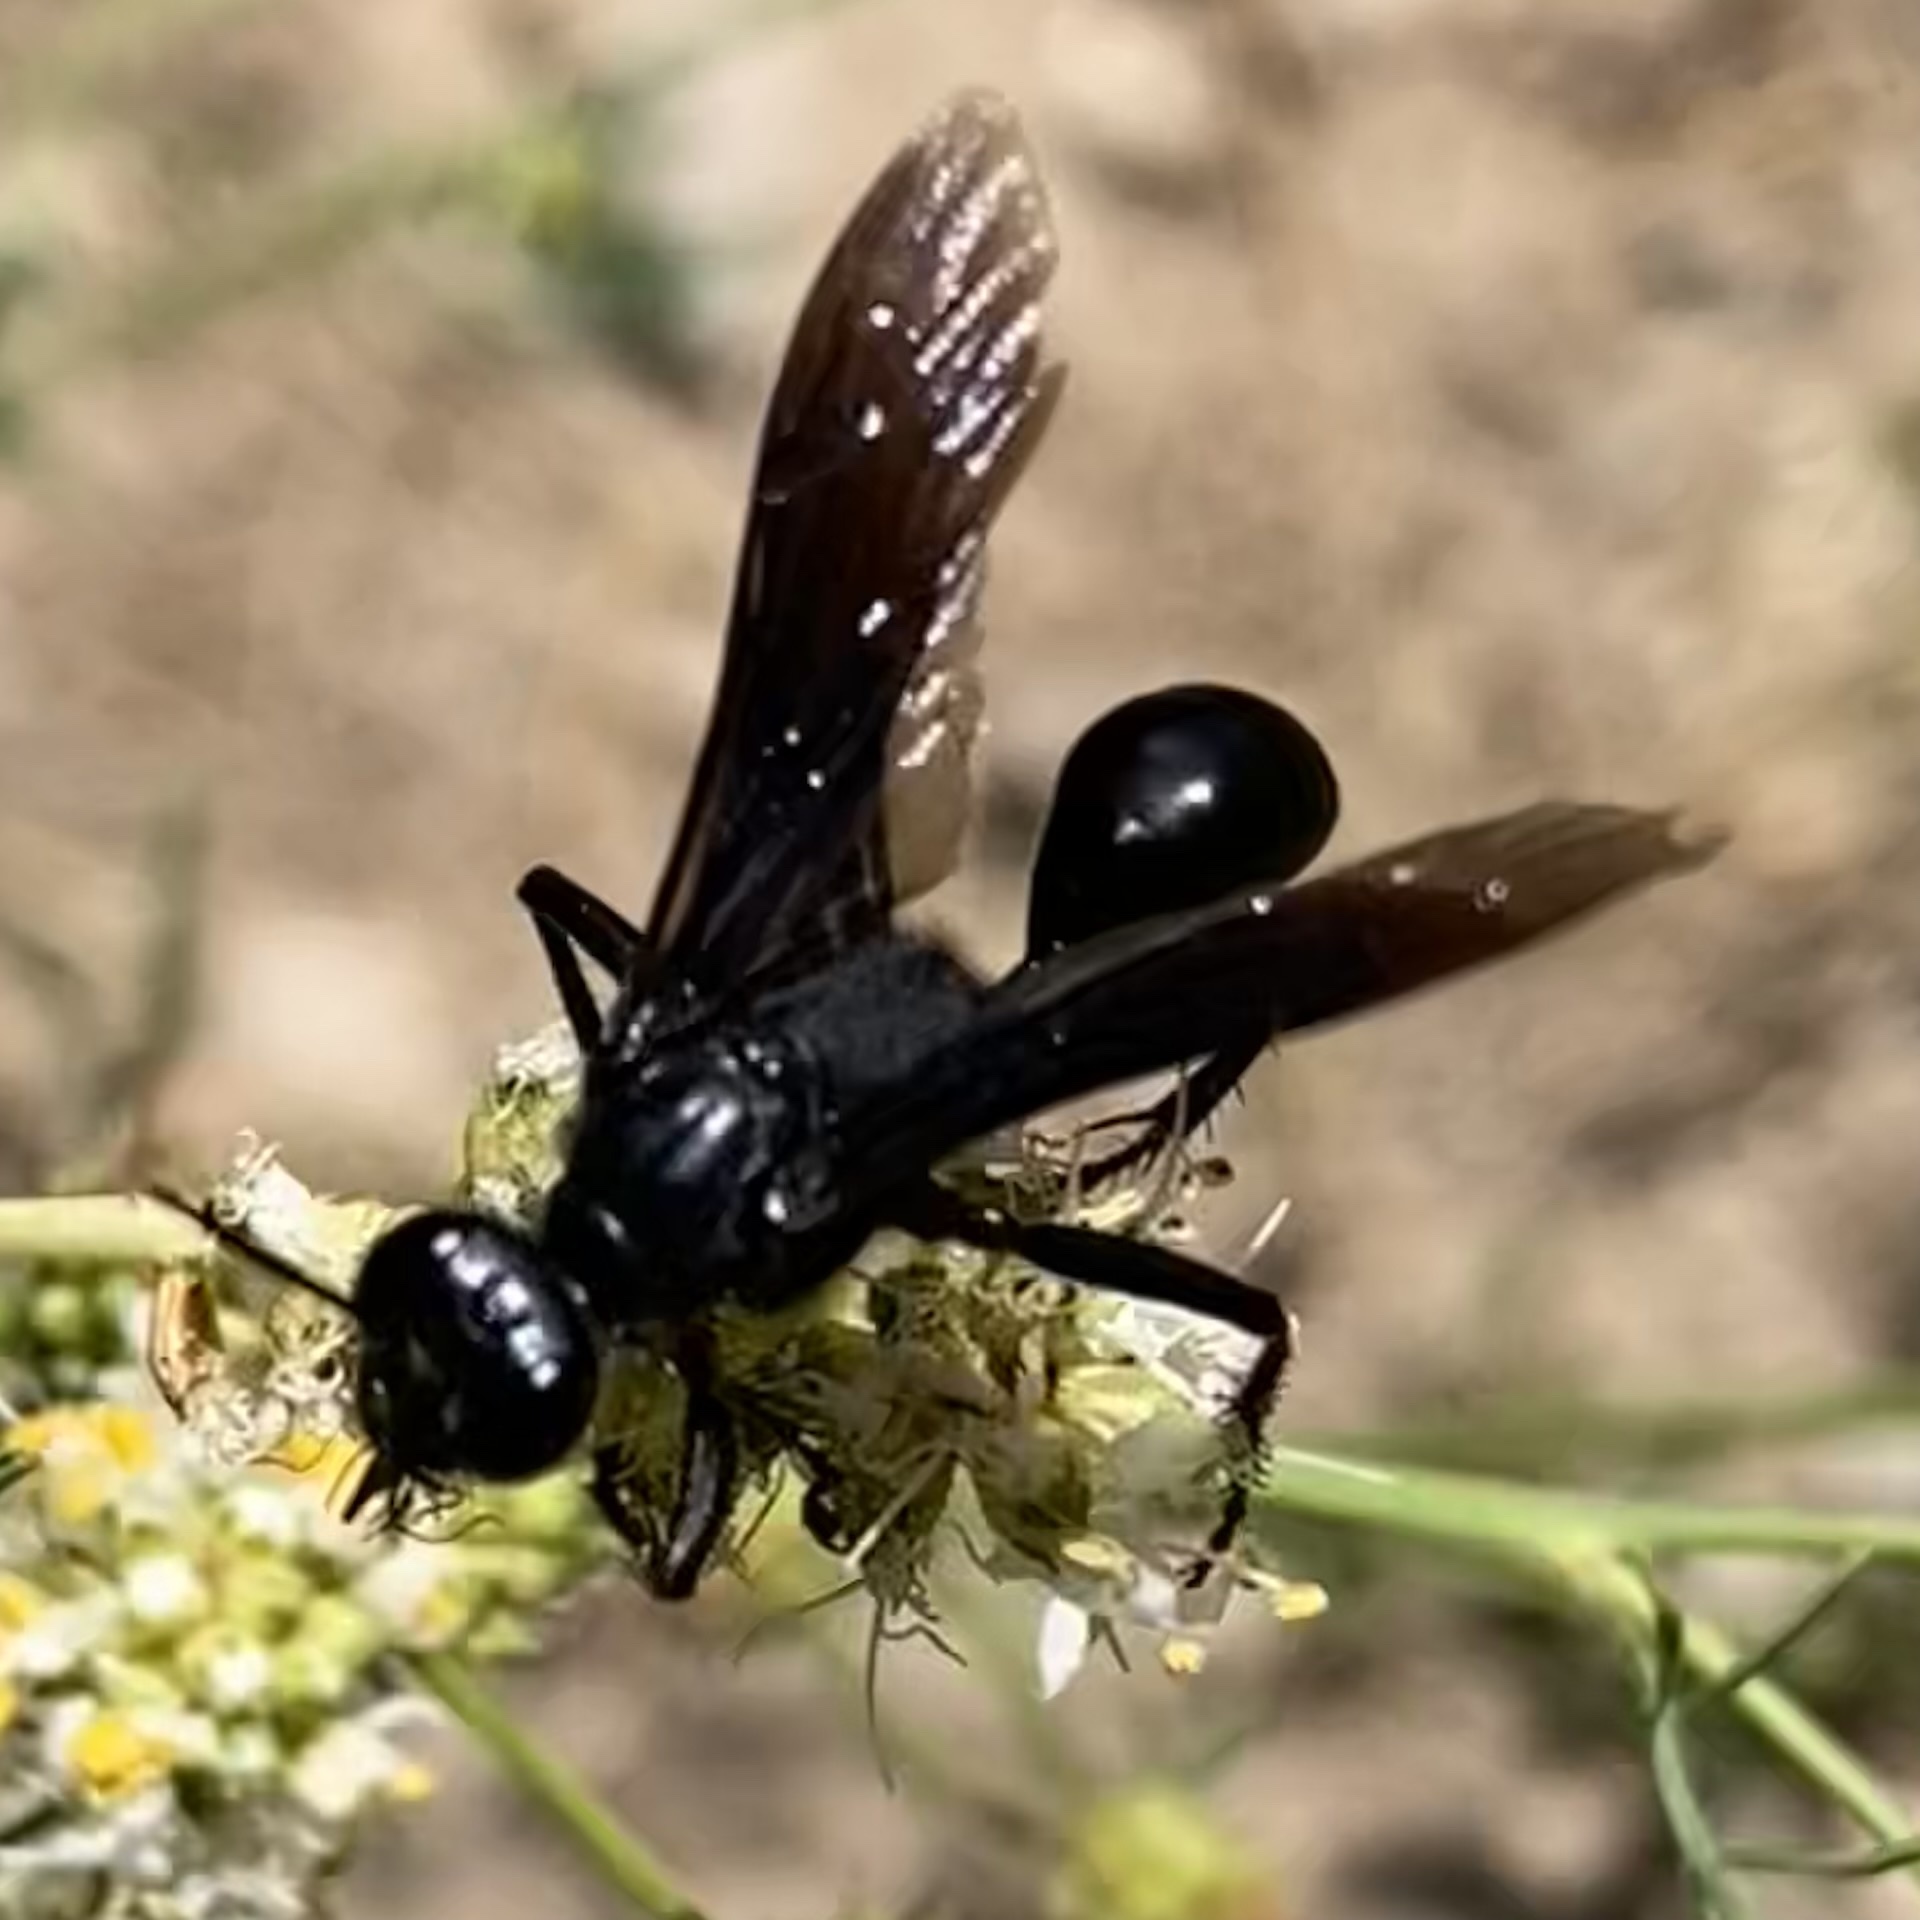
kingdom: Animalia
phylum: Arthropoda
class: Insecta
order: Hymenoptera
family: Sphecidae
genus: Prionyx
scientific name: Prionyx subatratus
